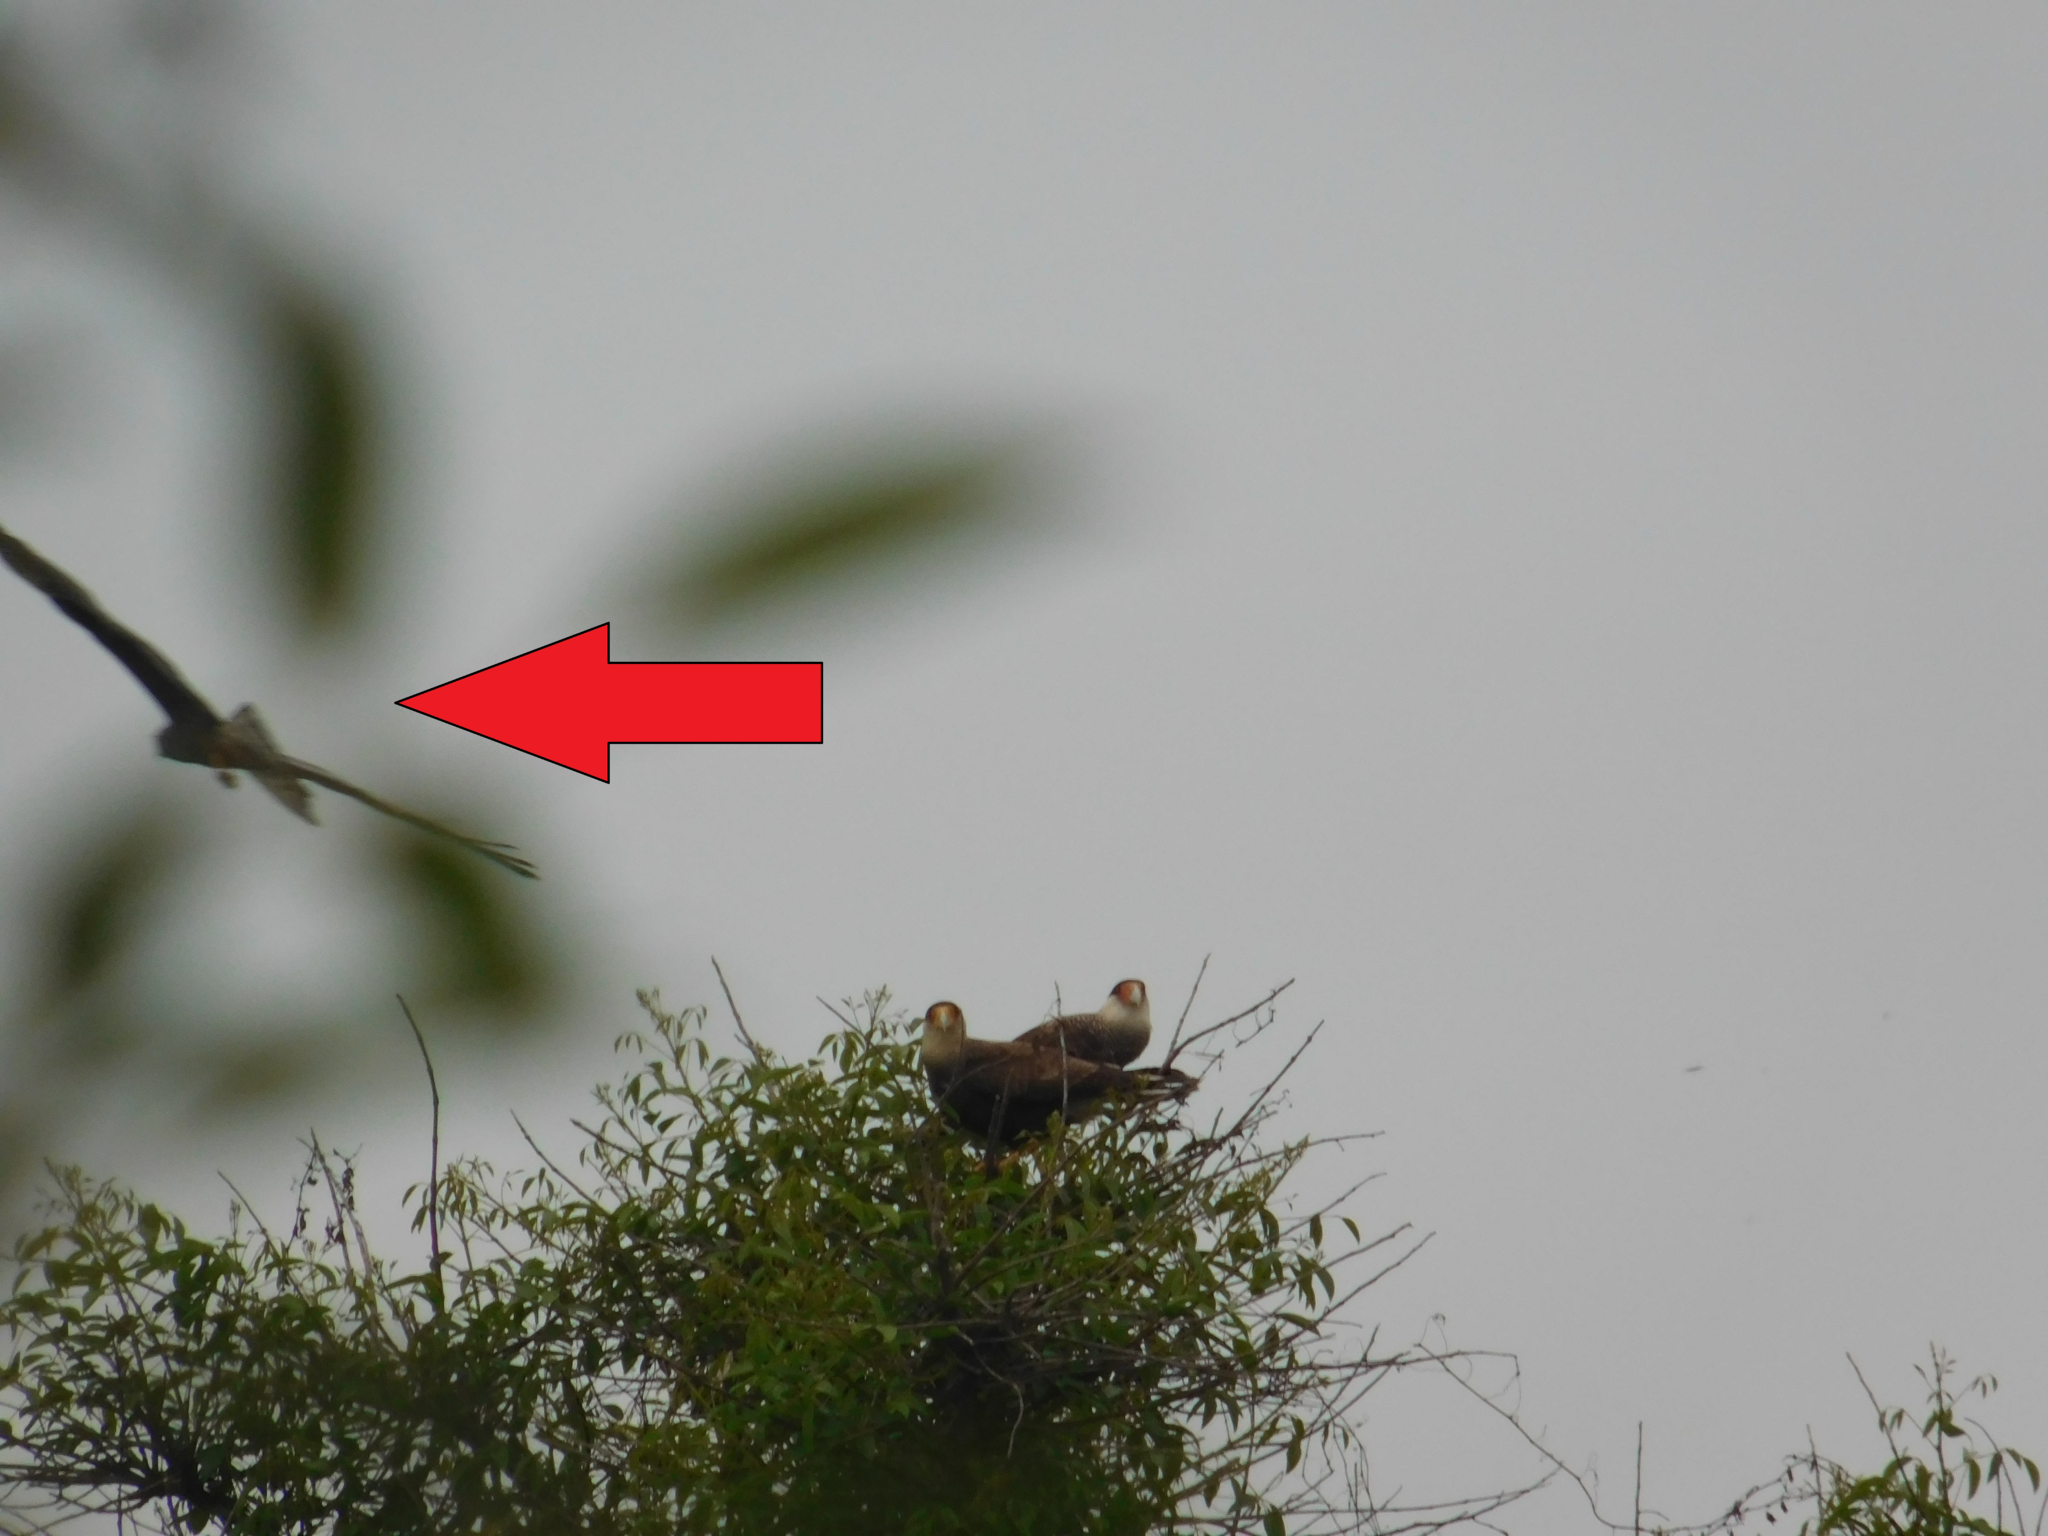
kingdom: Animalia
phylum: Chordata
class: Aves
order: Accipitriformes
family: Accipitridae
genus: Circus
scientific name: Circus buffoni
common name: Long-winged harrier
